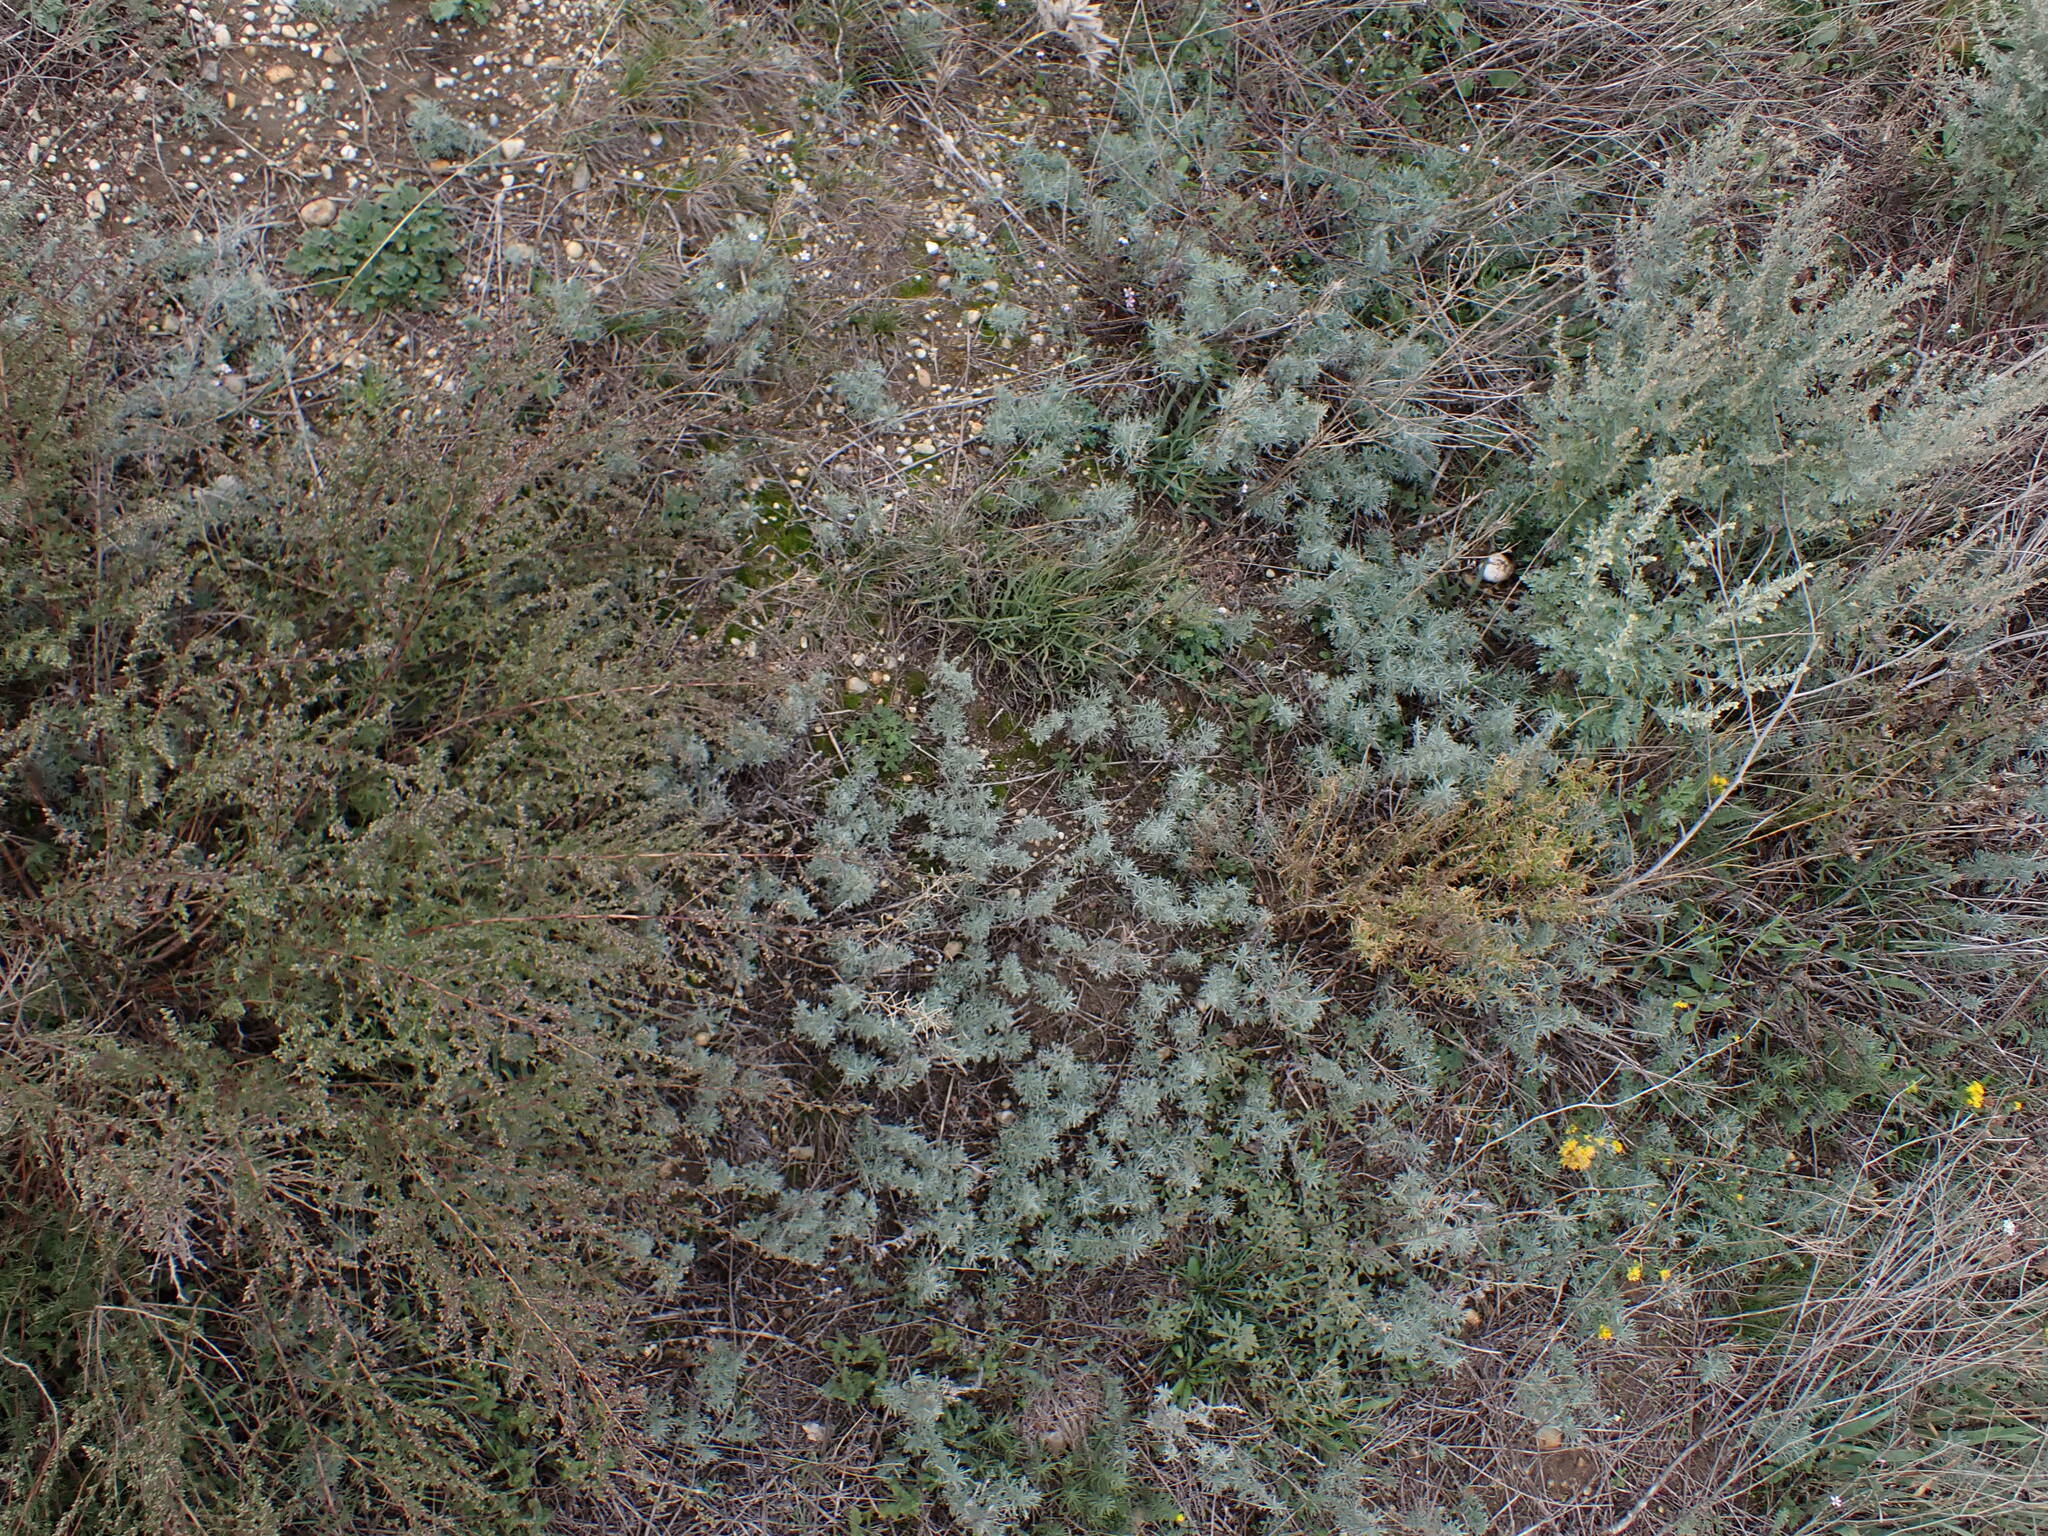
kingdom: Plantae
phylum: Tracheophyta
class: Magnoliopsida
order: Asterales
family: Asteraceae
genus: Artemisia
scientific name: Artemisia austriaca
